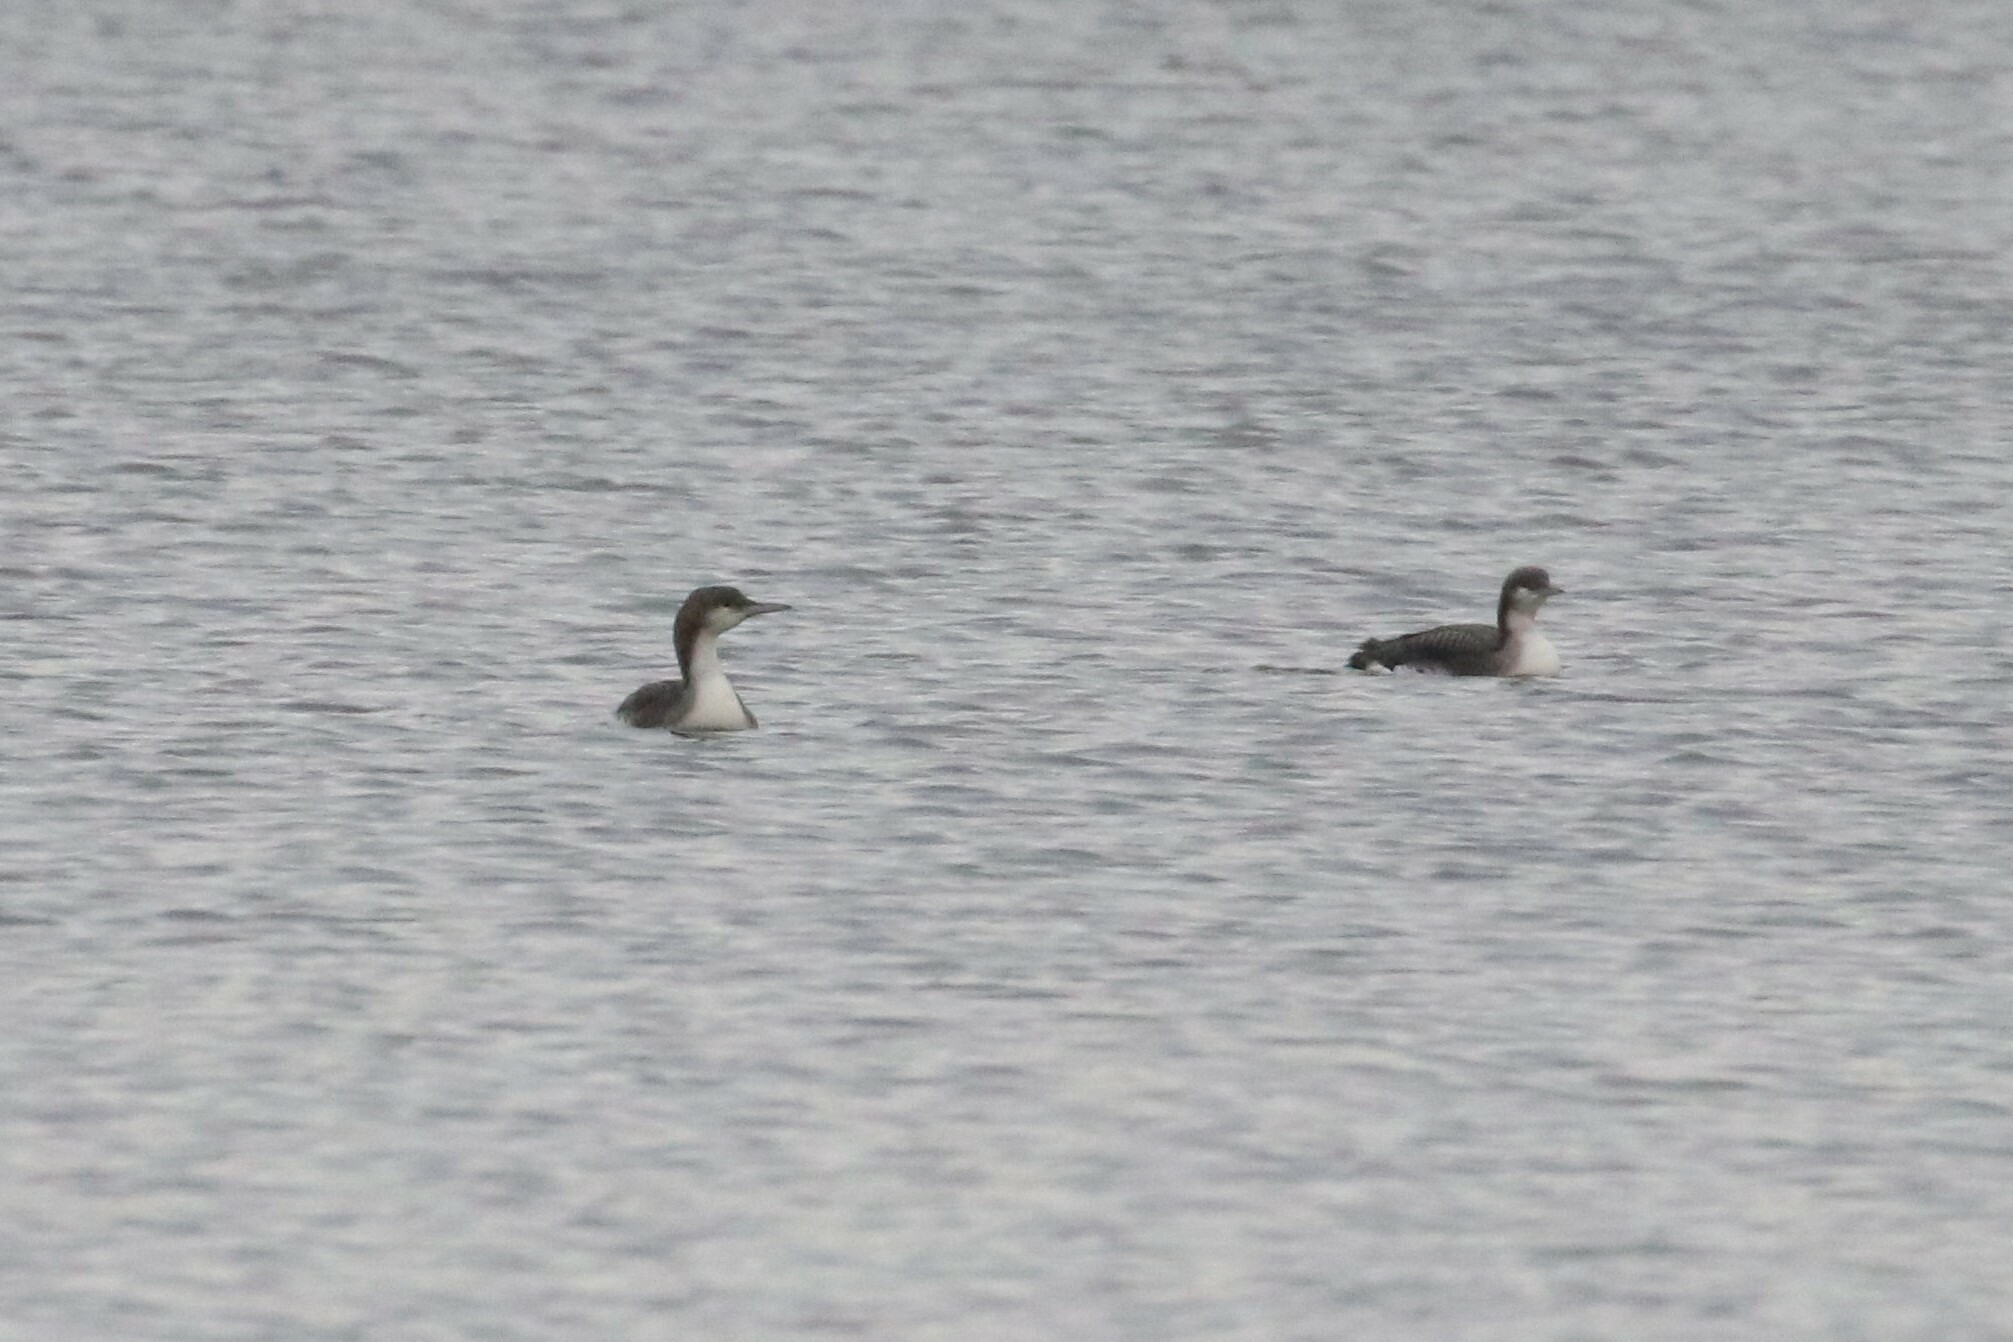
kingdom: Animalia
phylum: Chordata
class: Aves
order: Gaviiformes
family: Gaviidae
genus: Gavia
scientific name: Gavia arctica
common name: Black-throated loon
